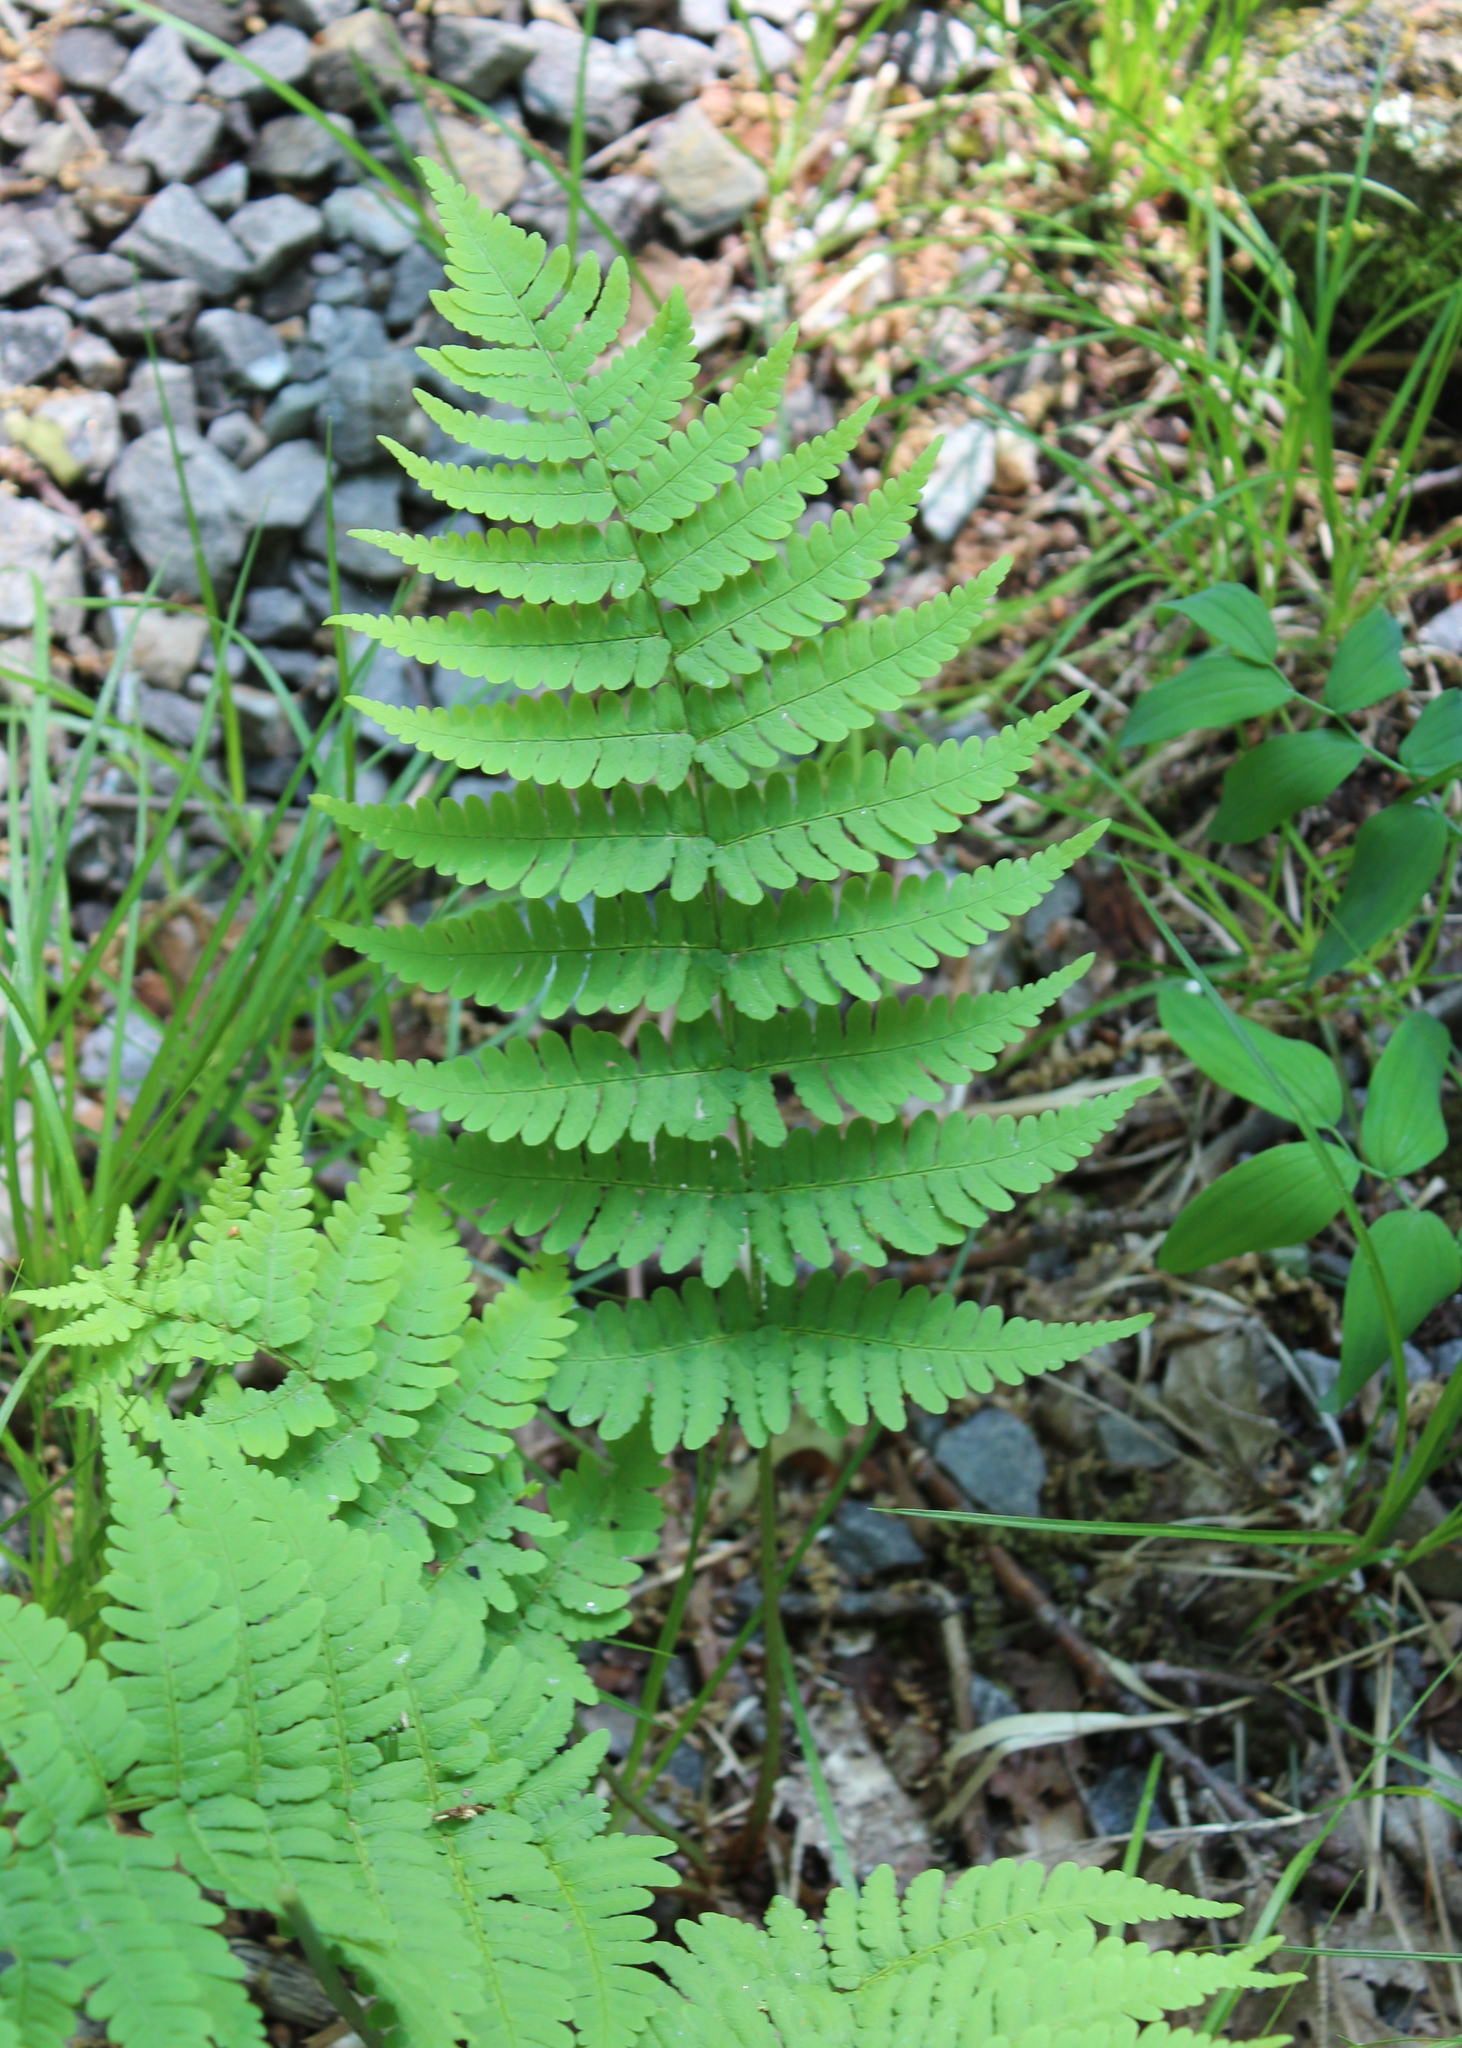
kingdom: Plantae
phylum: Tracheophyta
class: Polypodiopsida
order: Polypodiales
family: Dryopteridaceae
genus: Dryopteris
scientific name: Dryopteris marginalis
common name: Marginal wood fern
